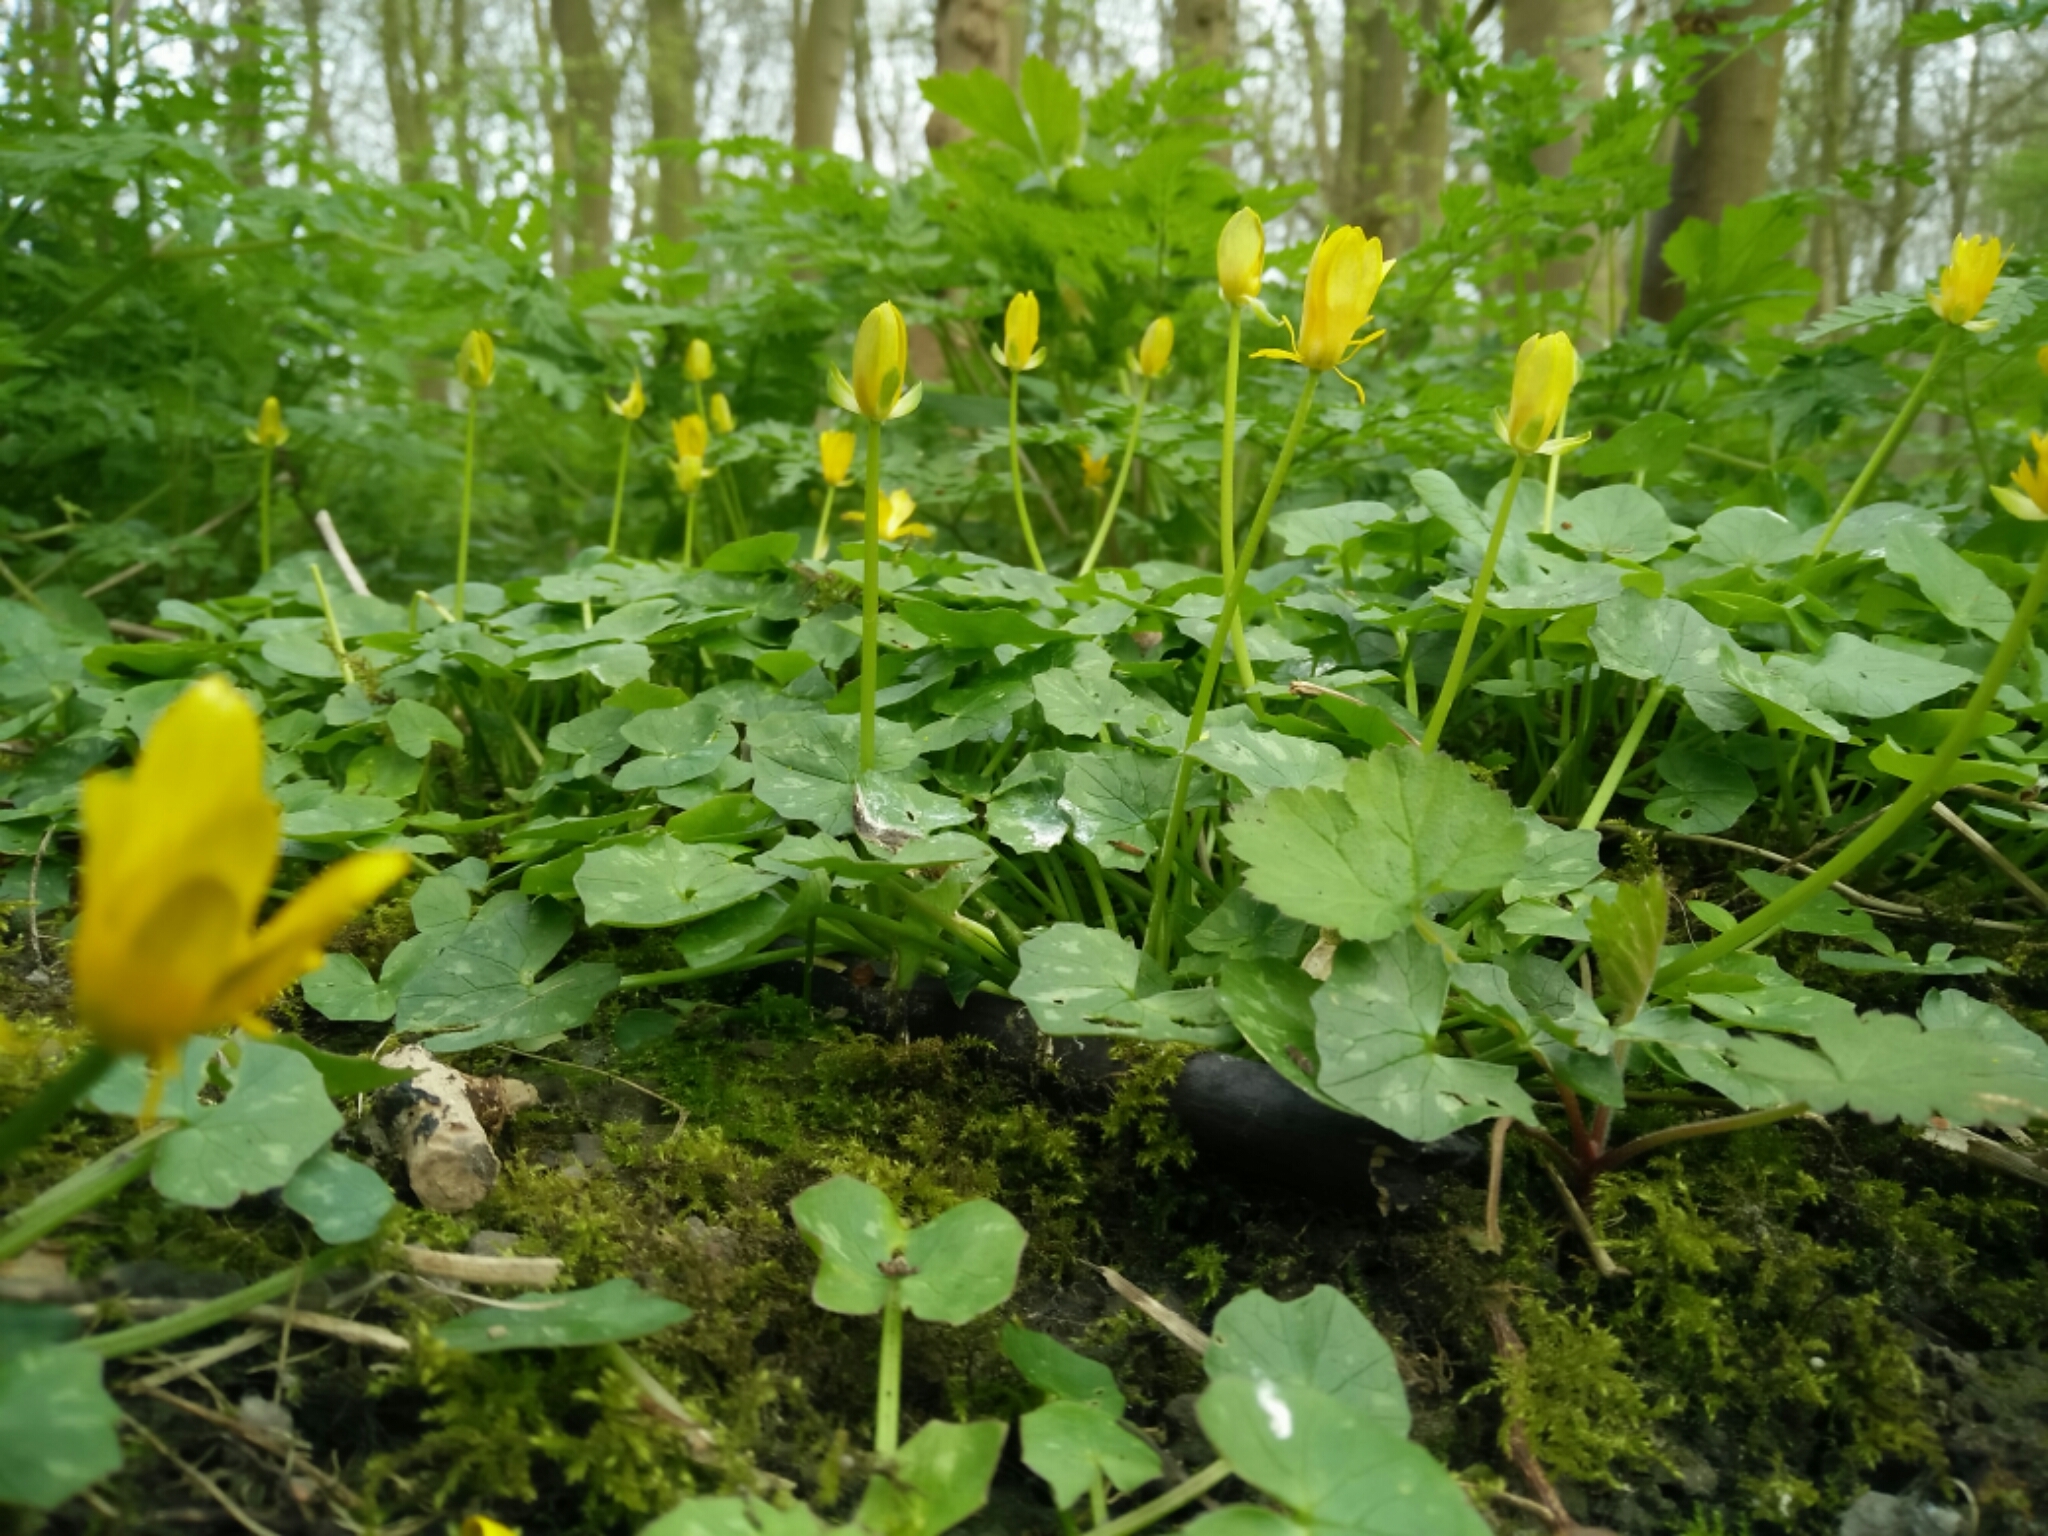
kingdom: Plantae
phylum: Tracheophyta
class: Magnoliopsida
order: Ranunculales
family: Ranunculaceae
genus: Ficaria
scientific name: Ficaria verna
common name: Lesser celandine
